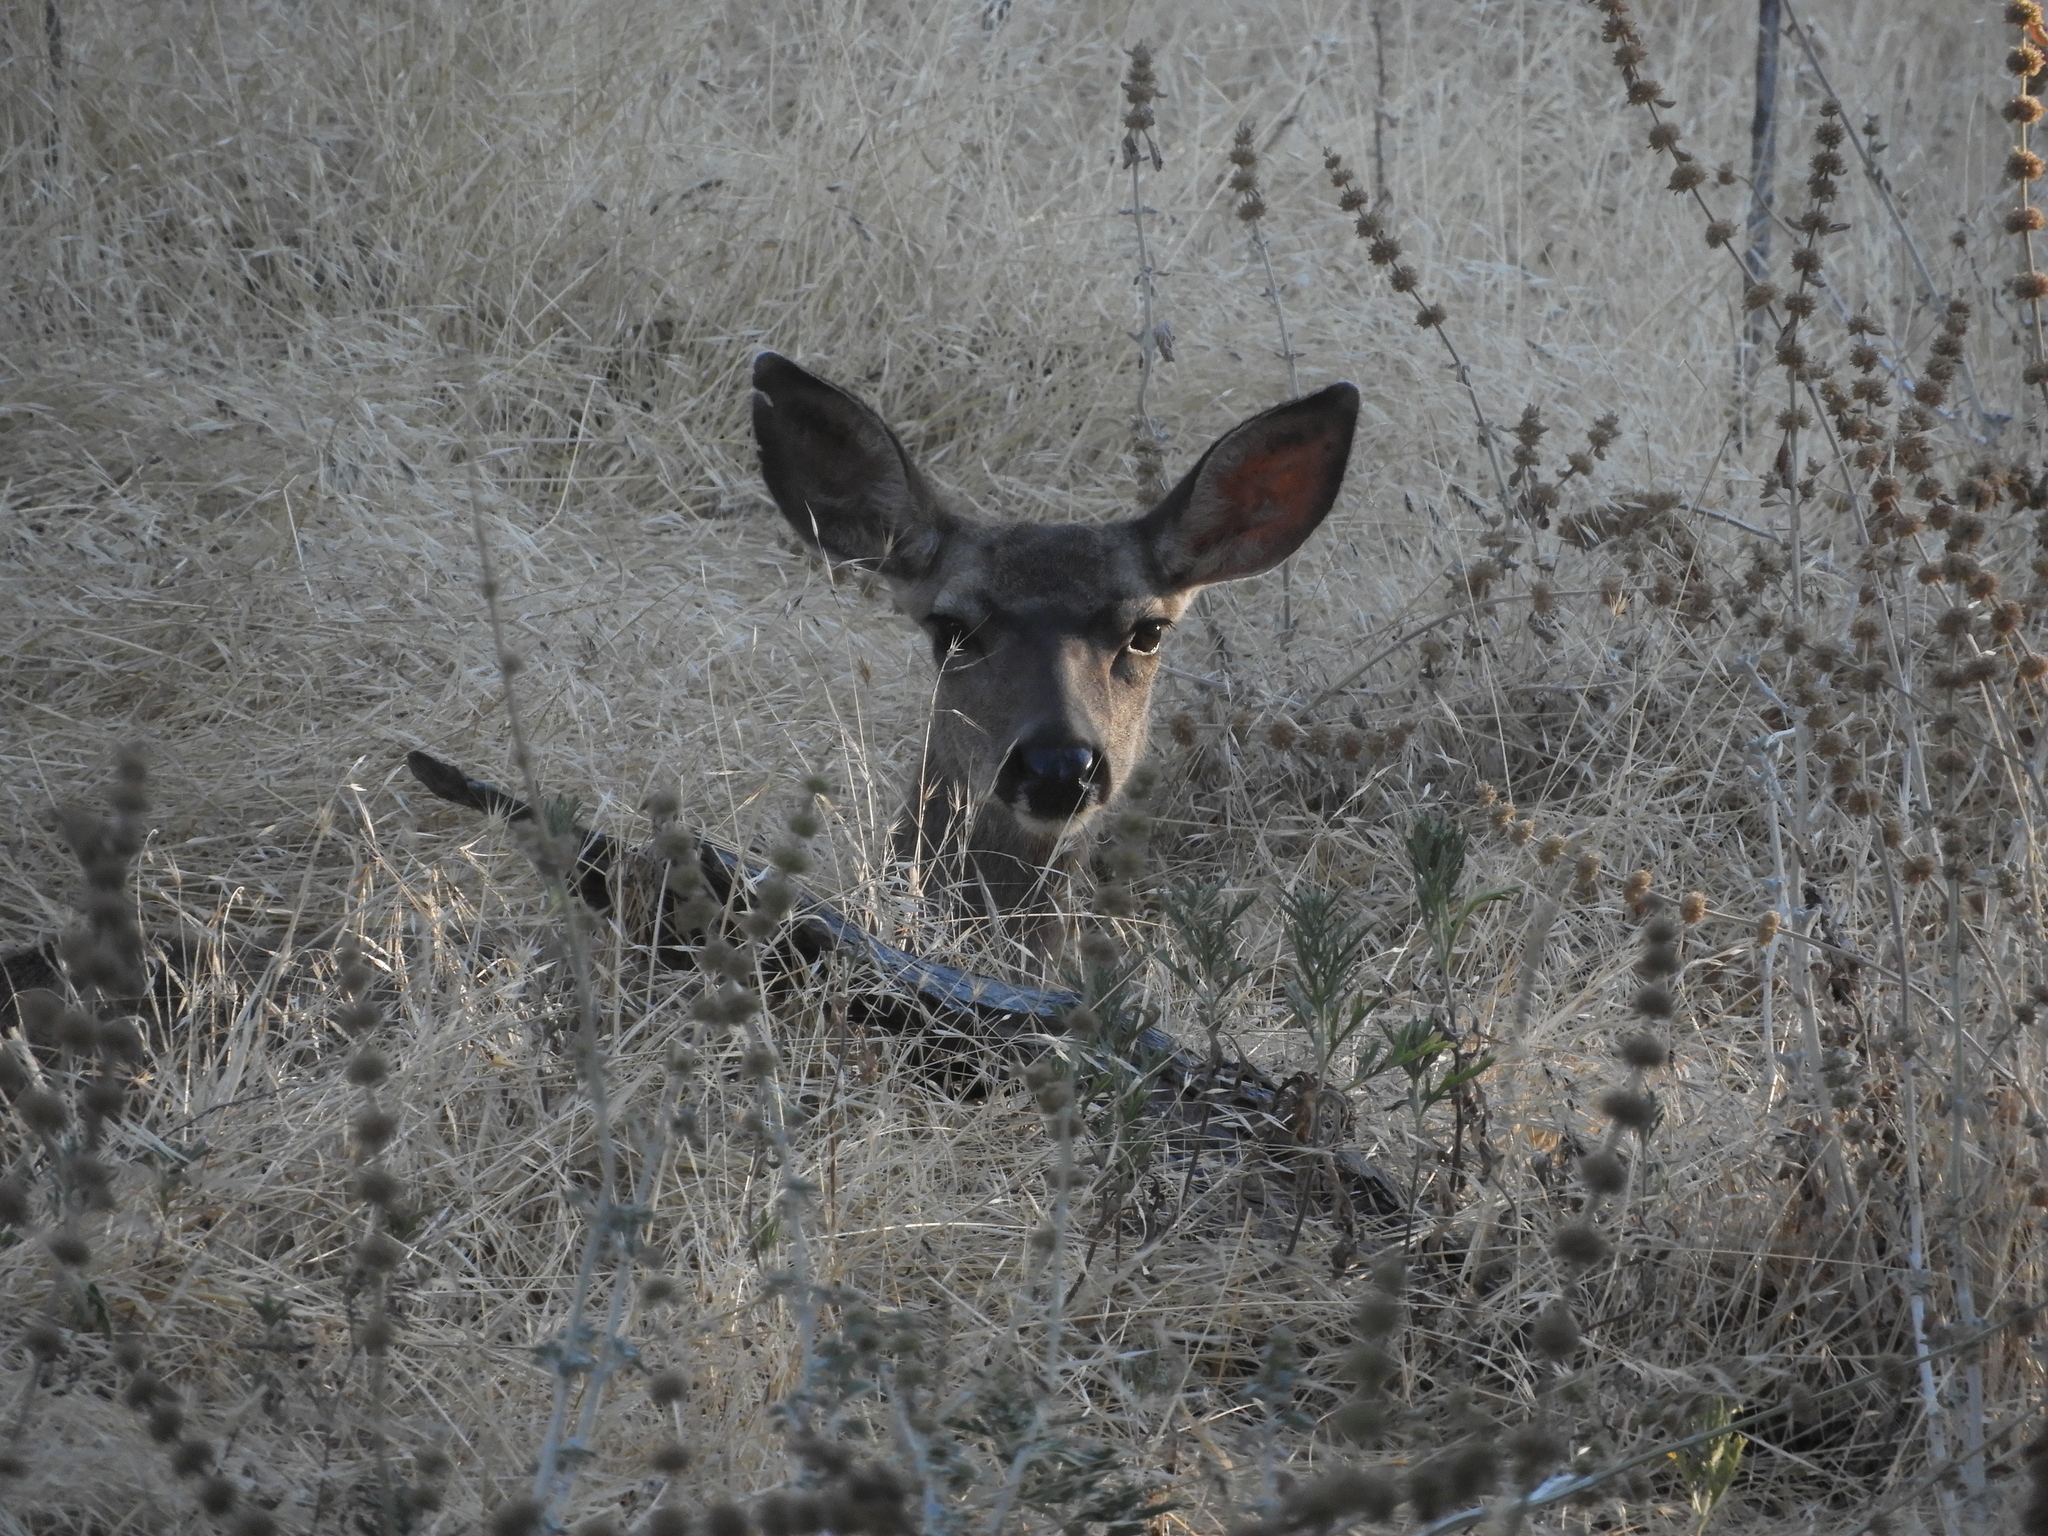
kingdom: Animalia
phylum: Chordata
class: Mammalia
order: Artiodactyla
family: Cervidae
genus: Odocoileus
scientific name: Odocoileus hemionus
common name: Mule deer
